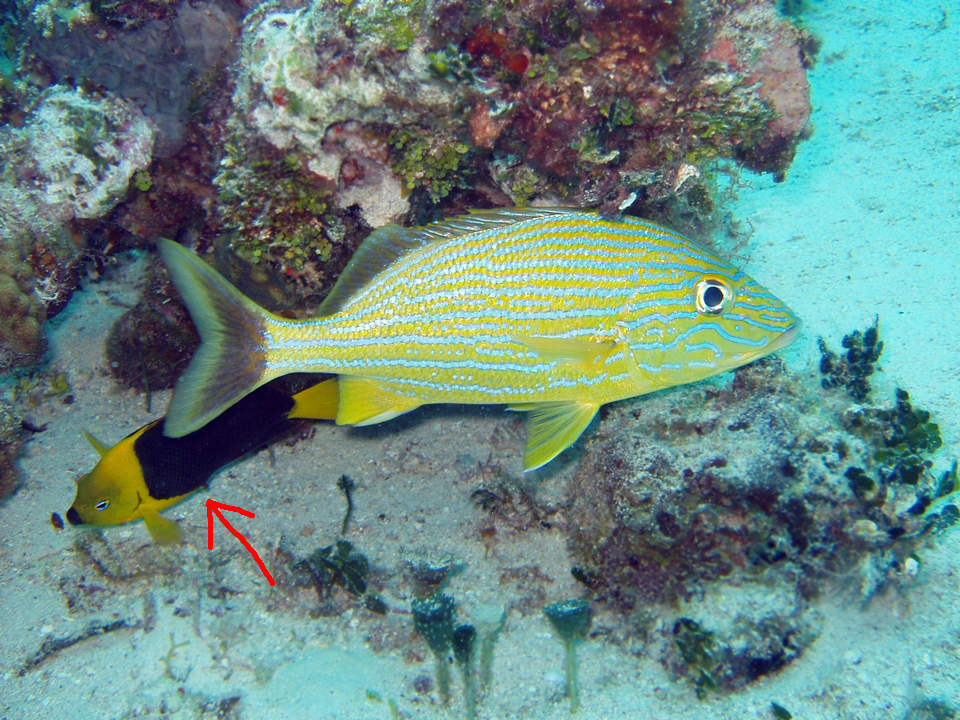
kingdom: Animalia
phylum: Chordata
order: Perciformes
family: Pomacanthidae
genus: Holacanthus
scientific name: Holacanthus tricolor
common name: Rock beauty
